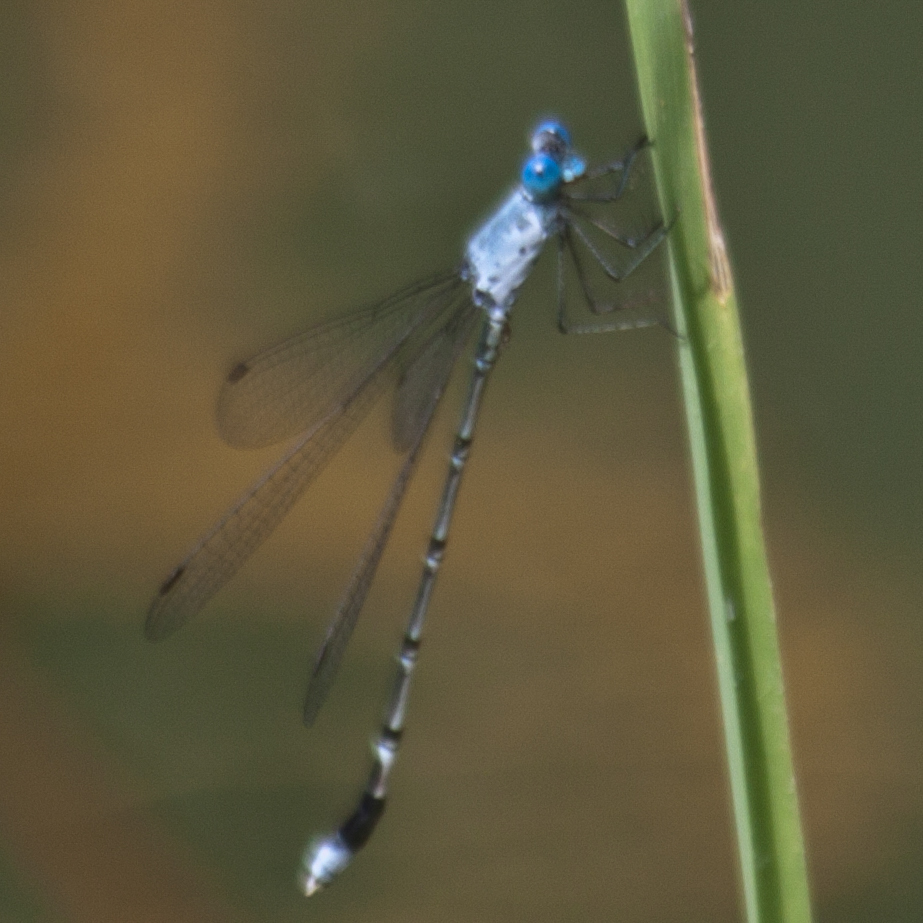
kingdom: Animalia
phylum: Arthropoda
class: Insecta
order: Odonata
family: Lestidae
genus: Lestes
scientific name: Lestes praemorsus
